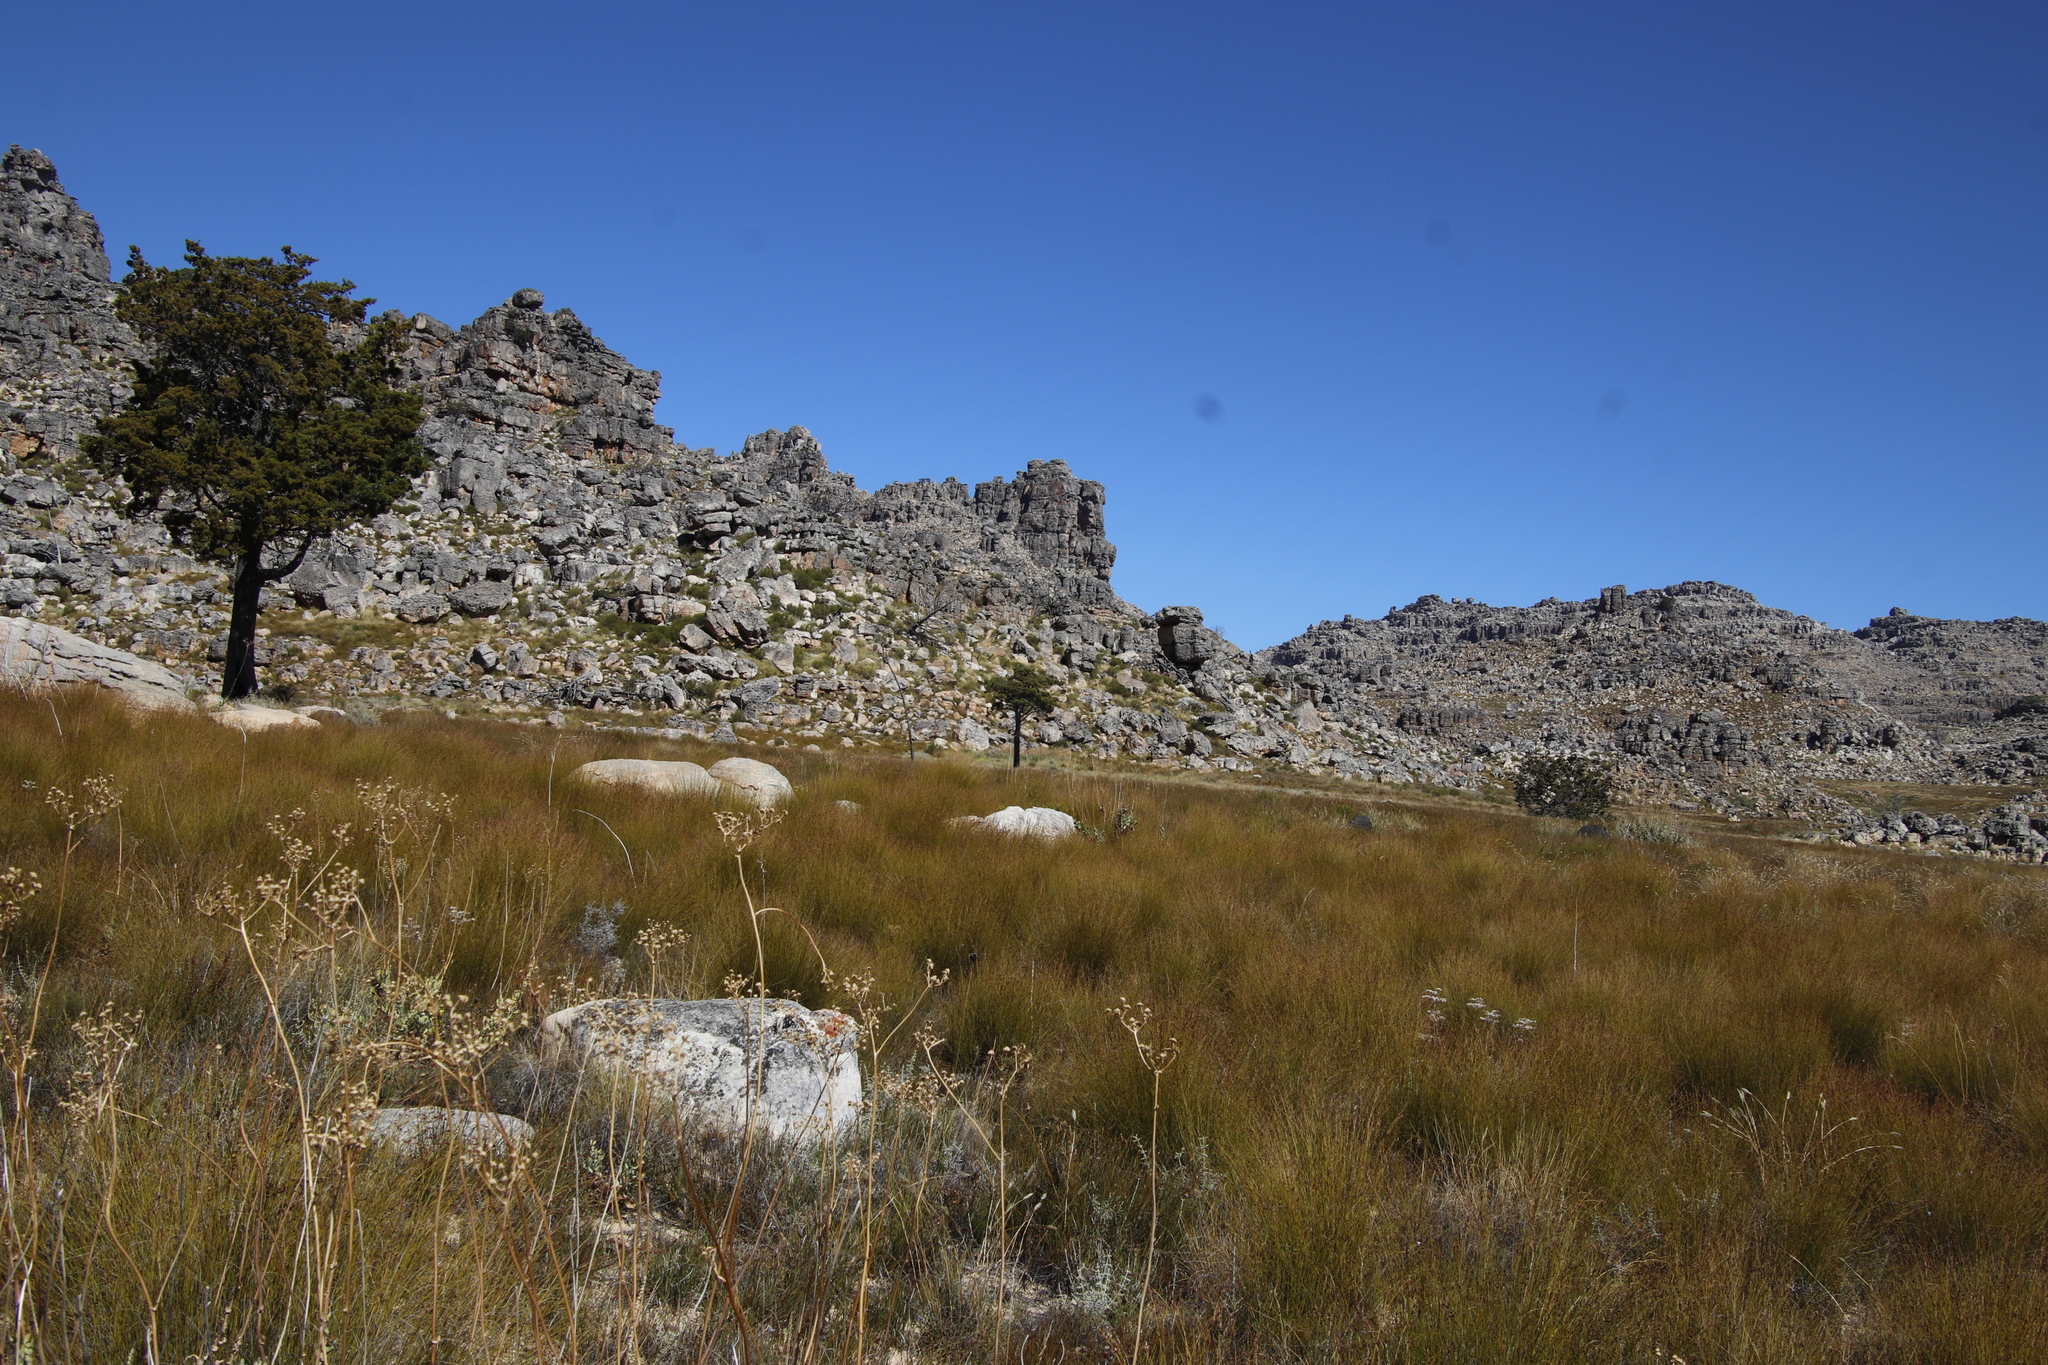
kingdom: Plantae
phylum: Tracheophyta
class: Pinopsida
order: Pinales
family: Cupressaceae
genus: Widdringtonia
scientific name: Widdringtonia nodiflora
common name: Cape cypress
